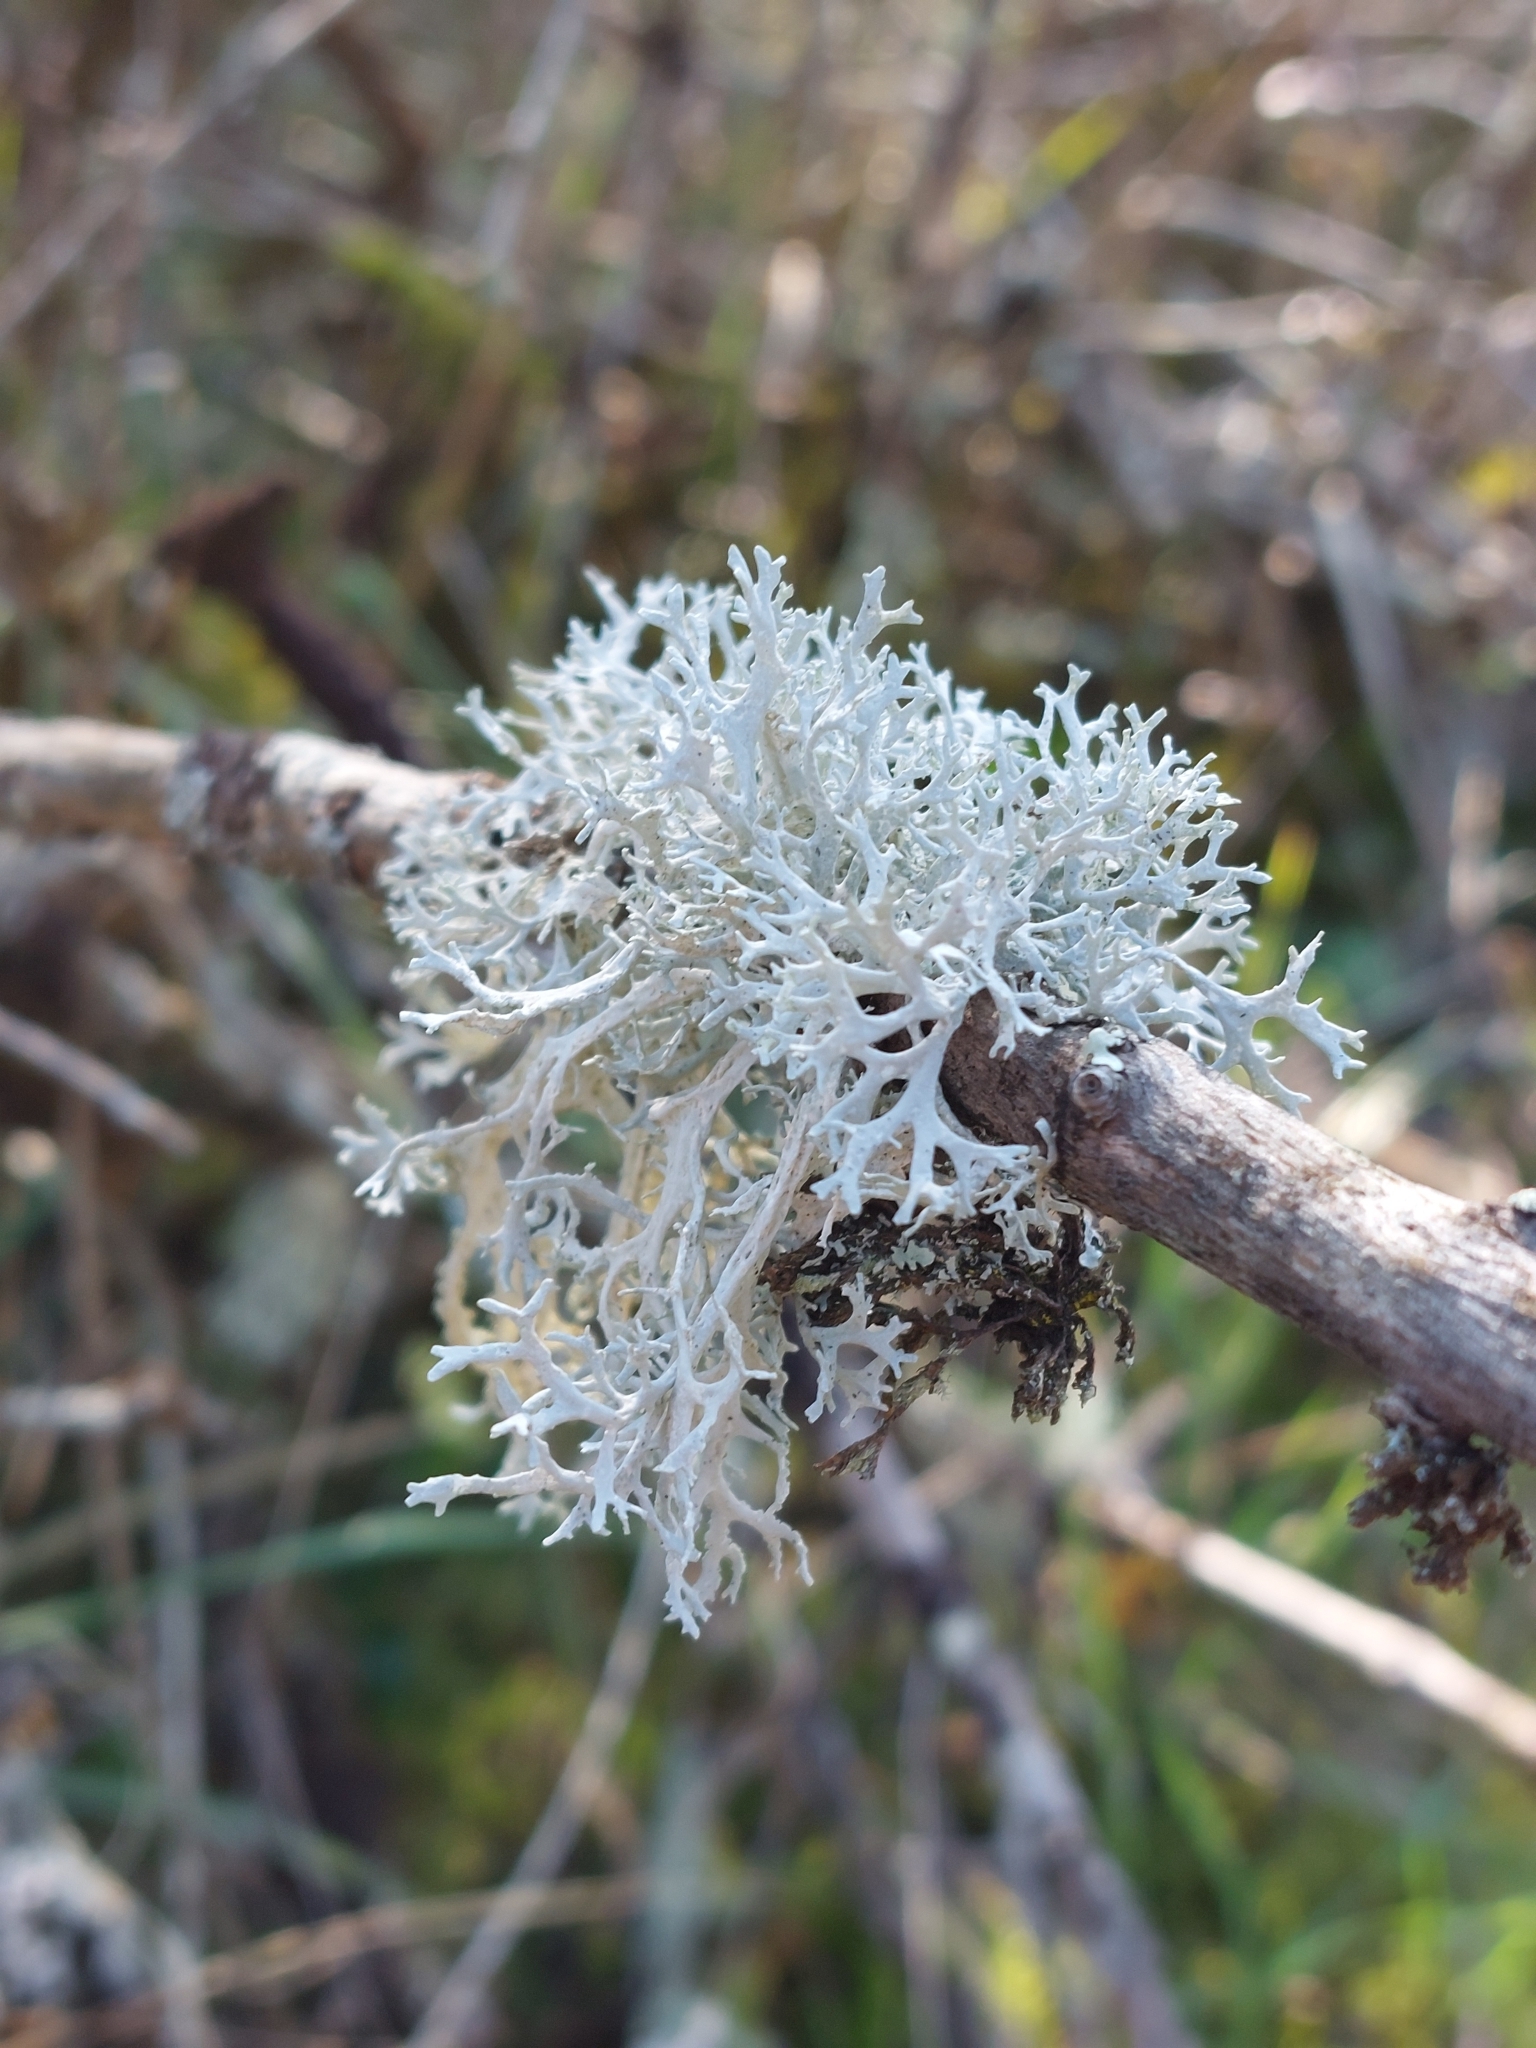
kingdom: Fungi
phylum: Ascomycota
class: Lecanoromycetes
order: Lecanorales
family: Parmeliaceae
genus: Evernia
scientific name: Evernia prunastri
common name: Oak moss
